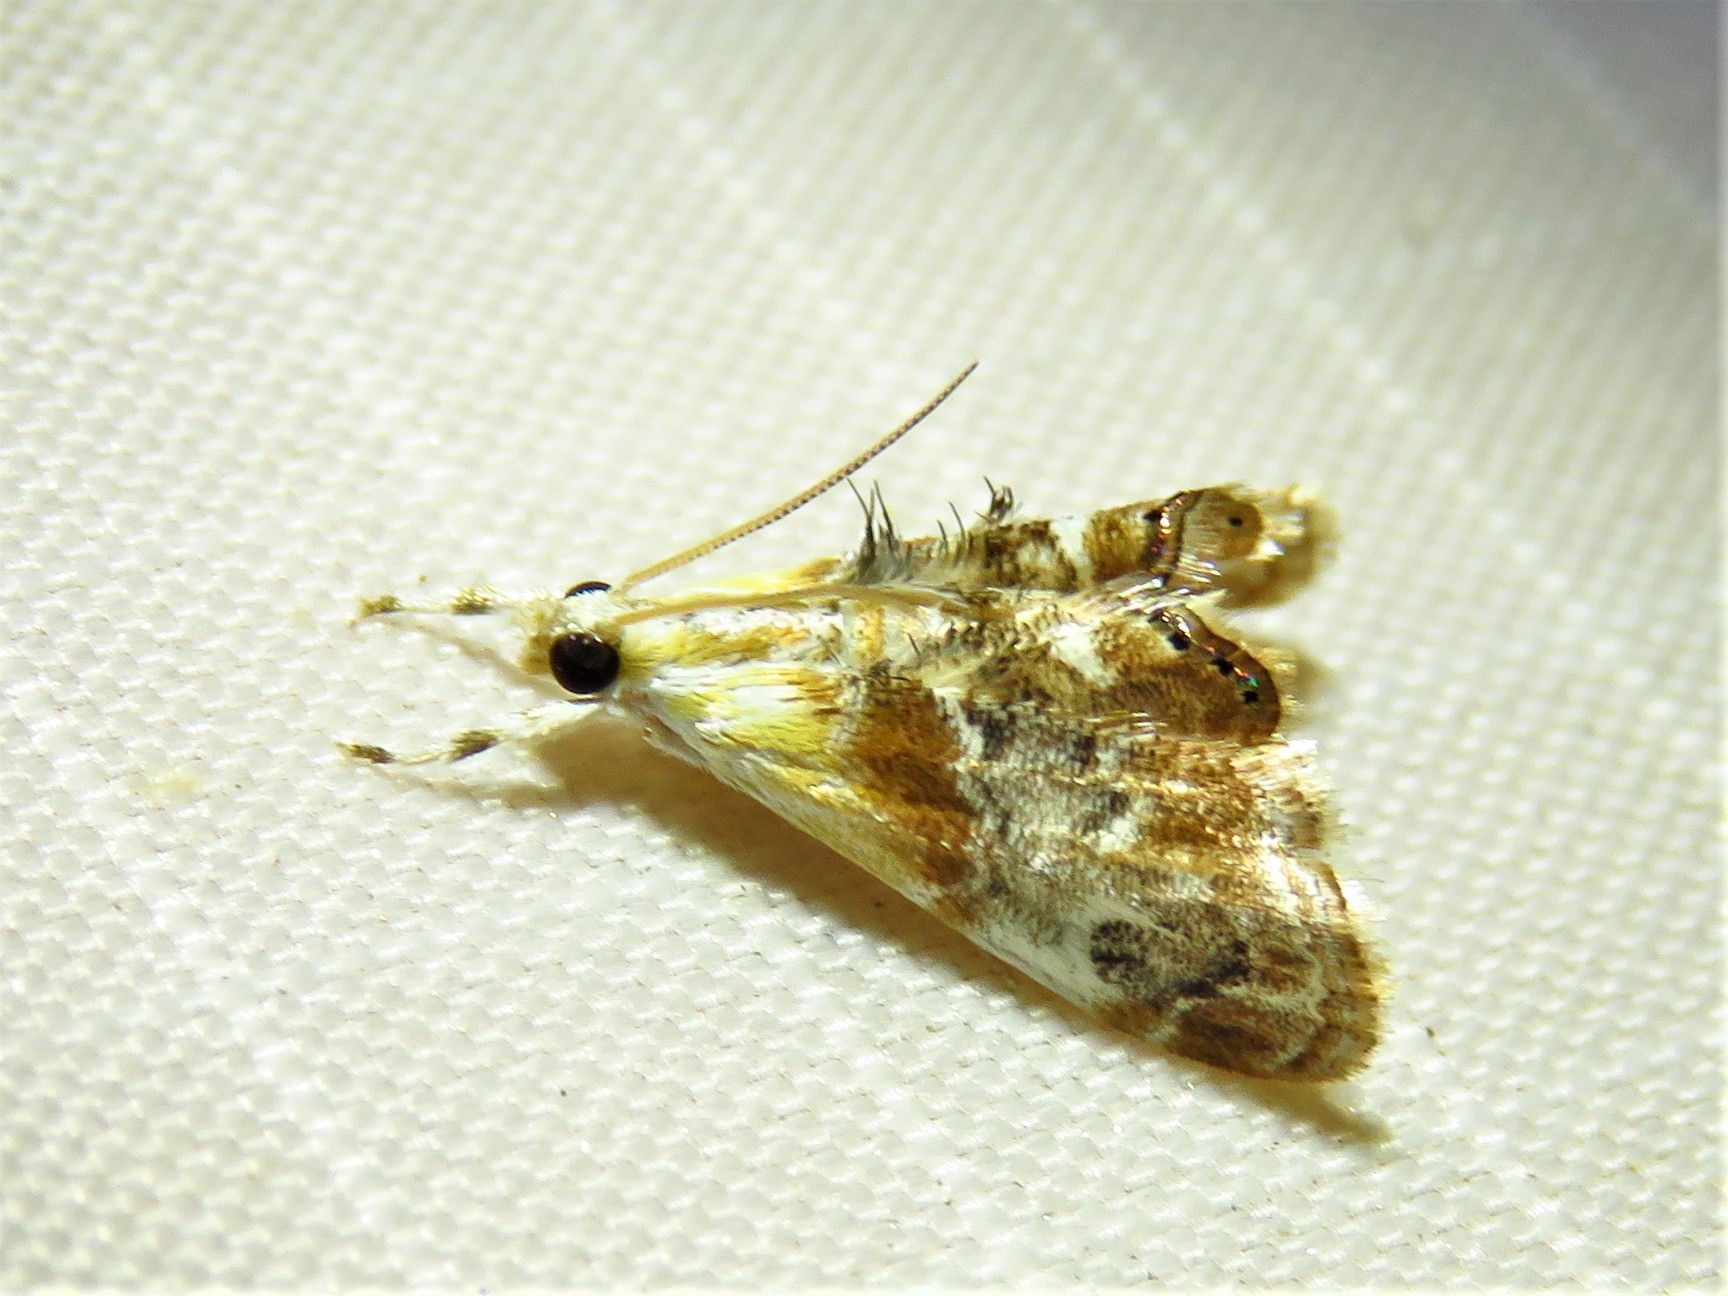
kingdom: Animalia
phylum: Arthropoda
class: Insecta
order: Lepidoptera
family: Crambidae
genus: Dicymolomia
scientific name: Dicymolomia julianalis
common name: Julia's dicymolomia moth
